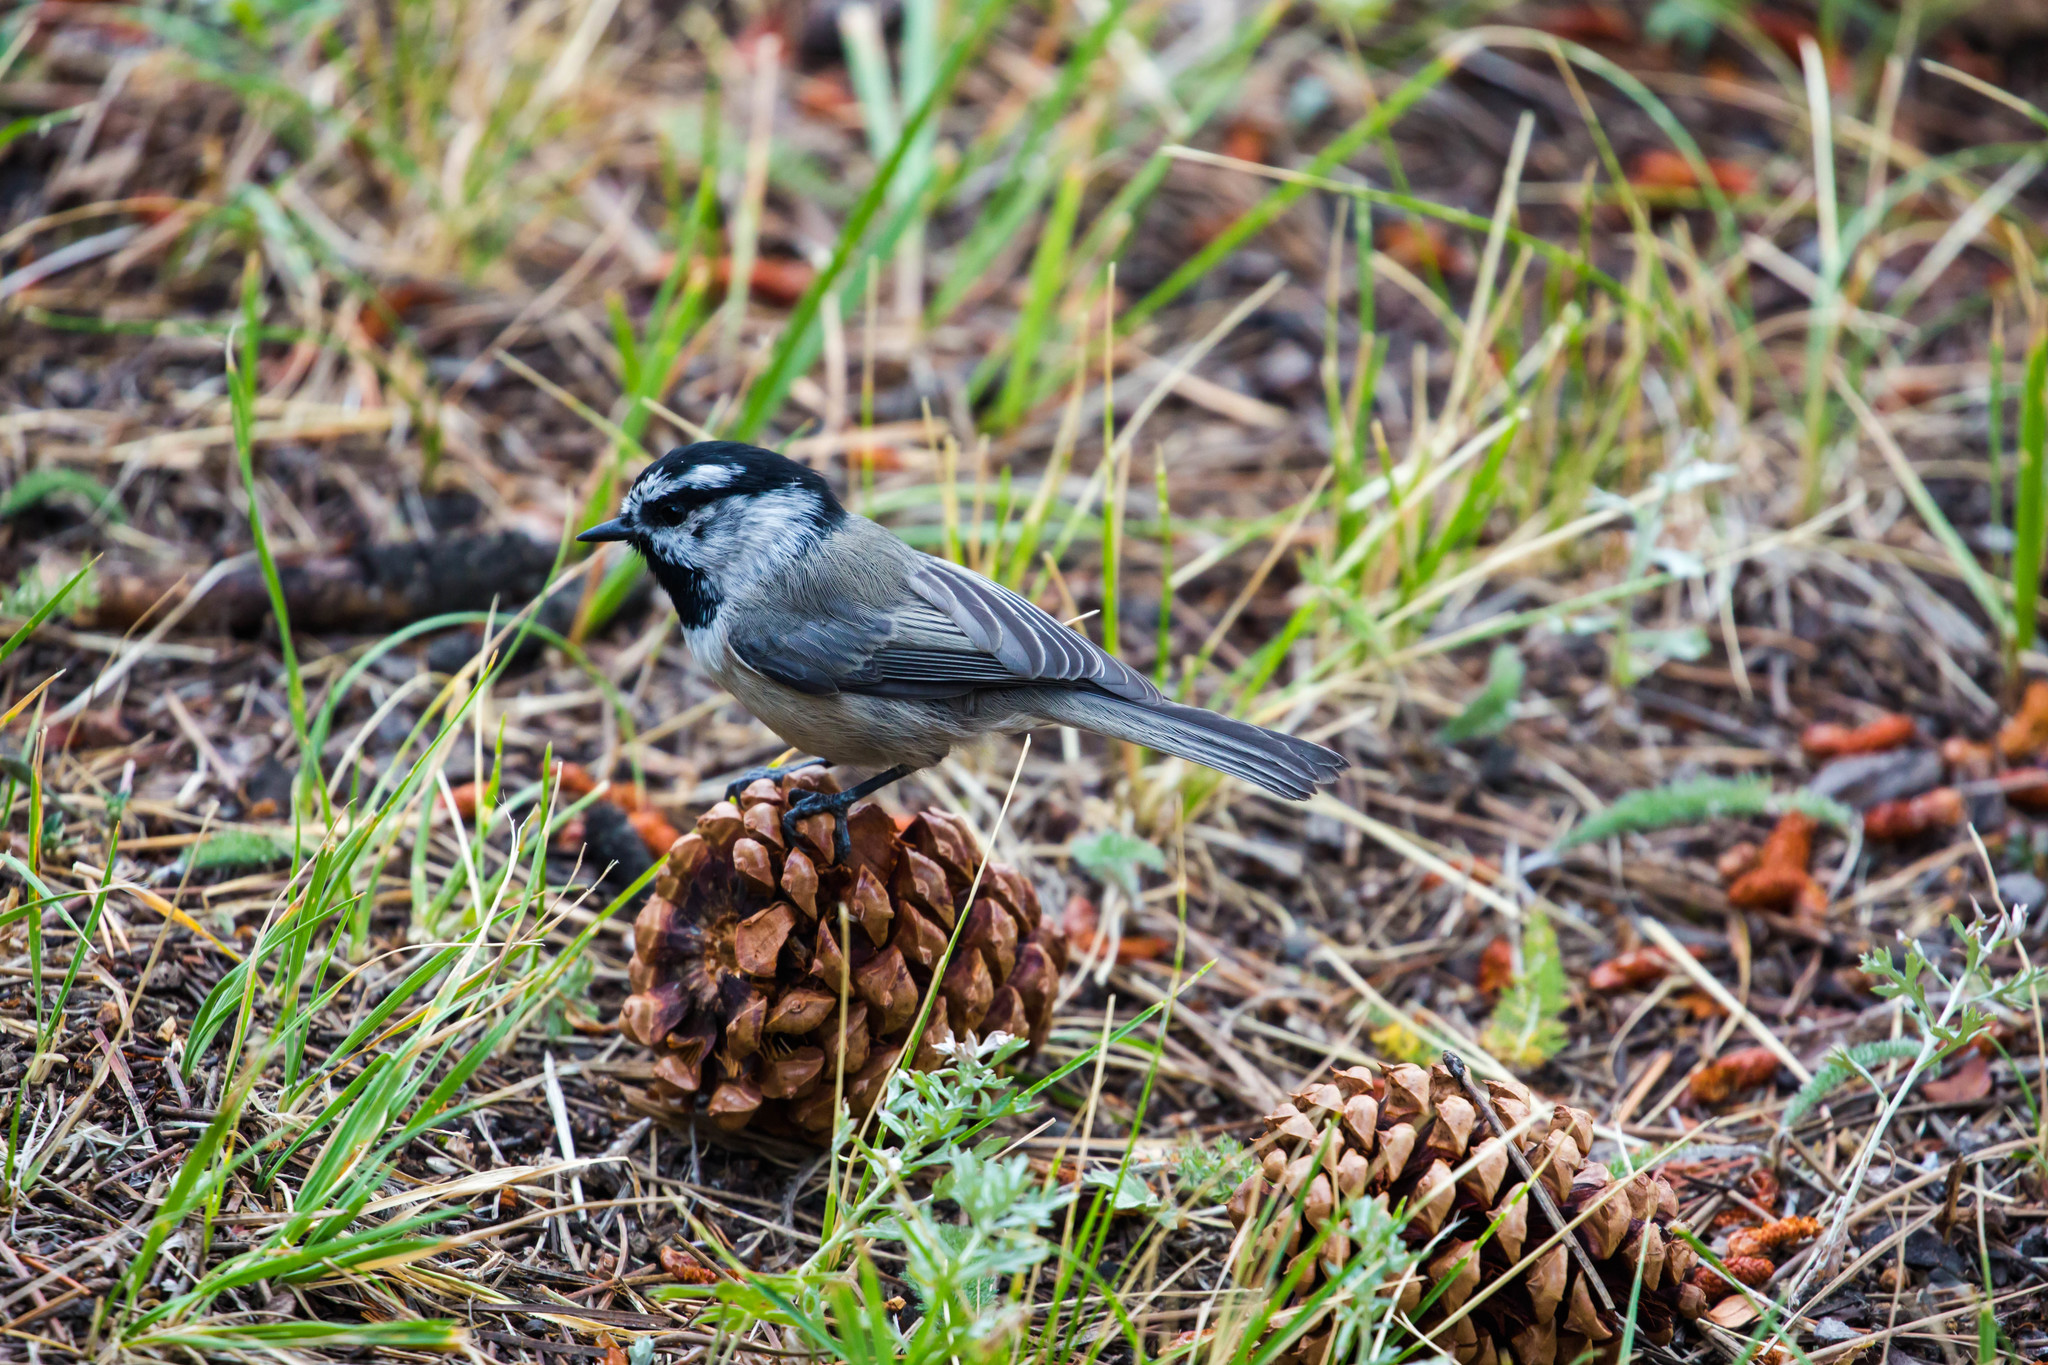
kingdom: Animalia
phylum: Chordata
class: Aves
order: Passeriformes
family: Paridae
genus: Poecile
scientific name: Poecile gambeli
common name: Mountain chickadee
